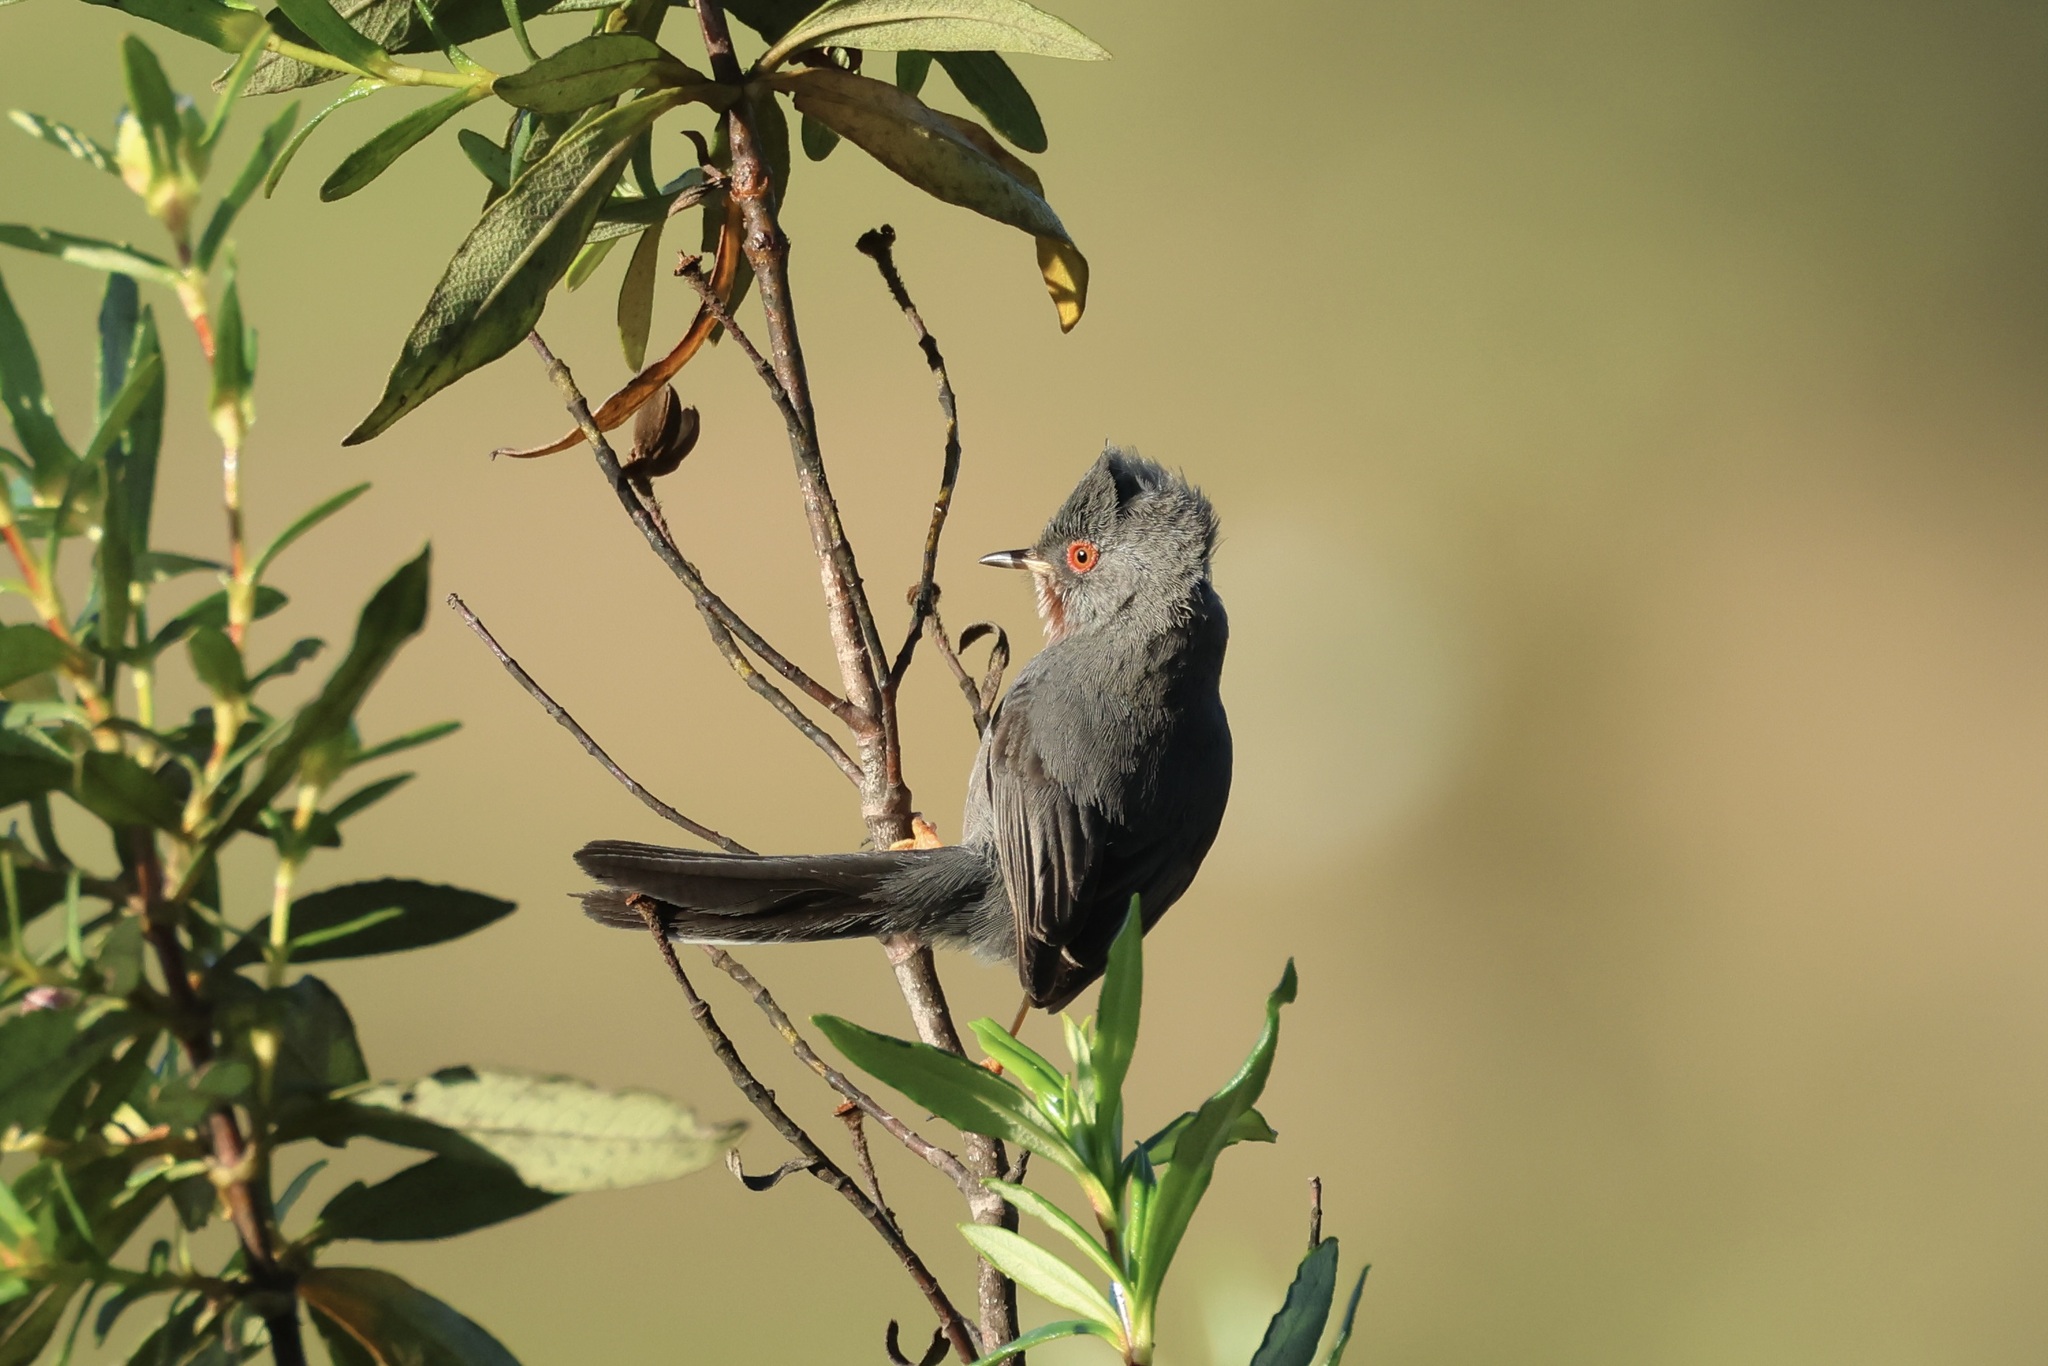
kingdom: Animalia
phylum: Chordata
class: Aves
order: Passeriformes
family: Sylviidae
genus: Sylvia
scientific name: Sylvia undata
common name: Dartford warbler
